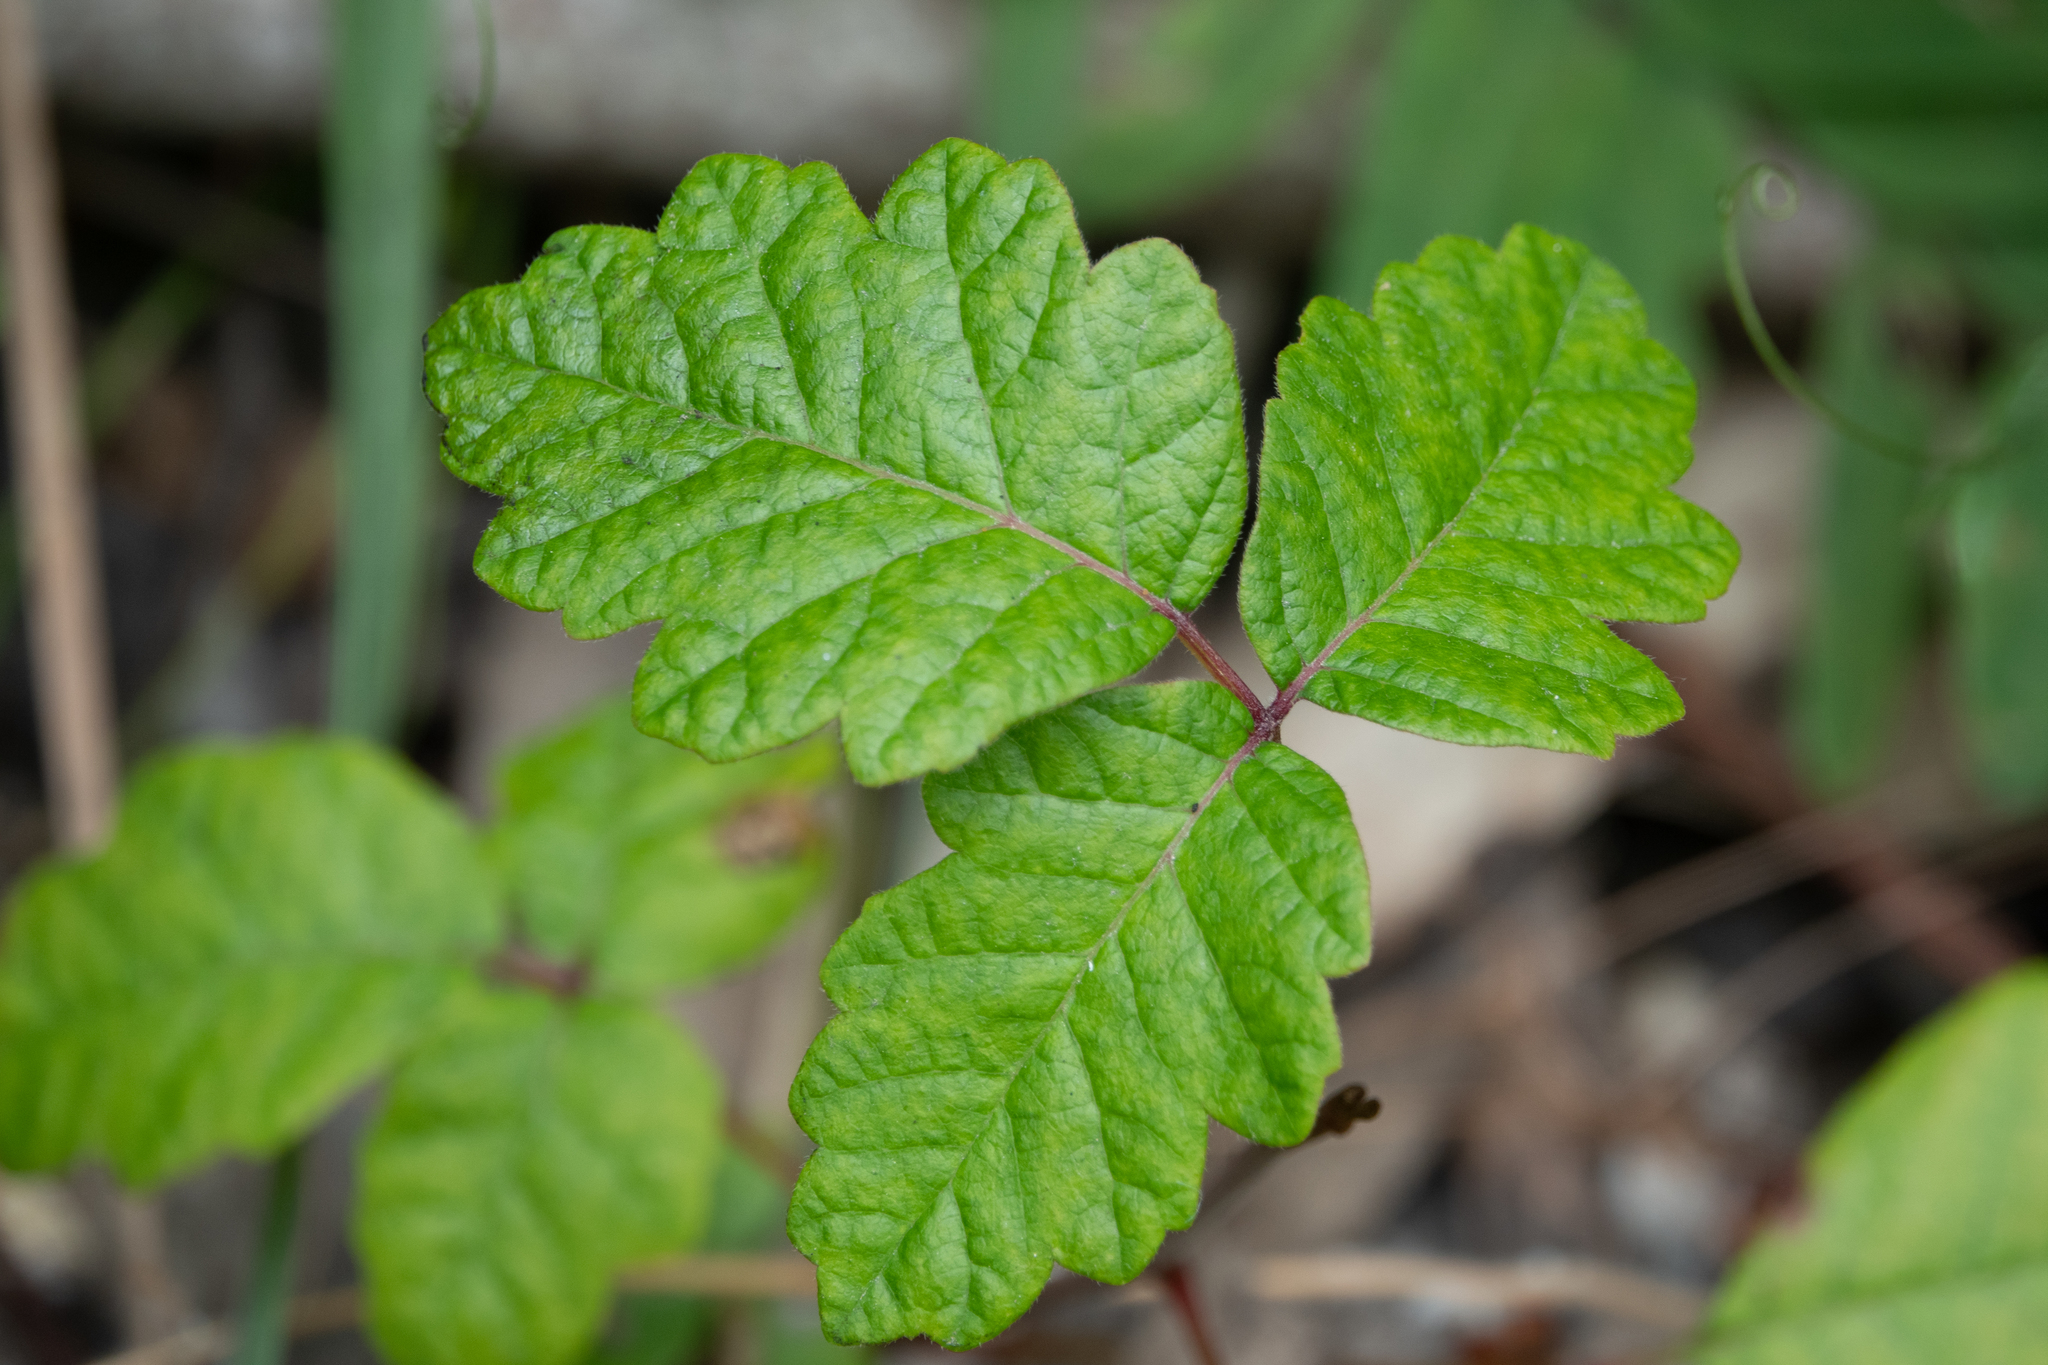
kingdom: Plantae
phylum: Tracheophyta
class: Magnoliopsida
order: Sapindales
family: Anacardiaceae
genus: Toxicodendron
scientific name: Toxicodendron diversilobum
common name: Pacific poison-oak
